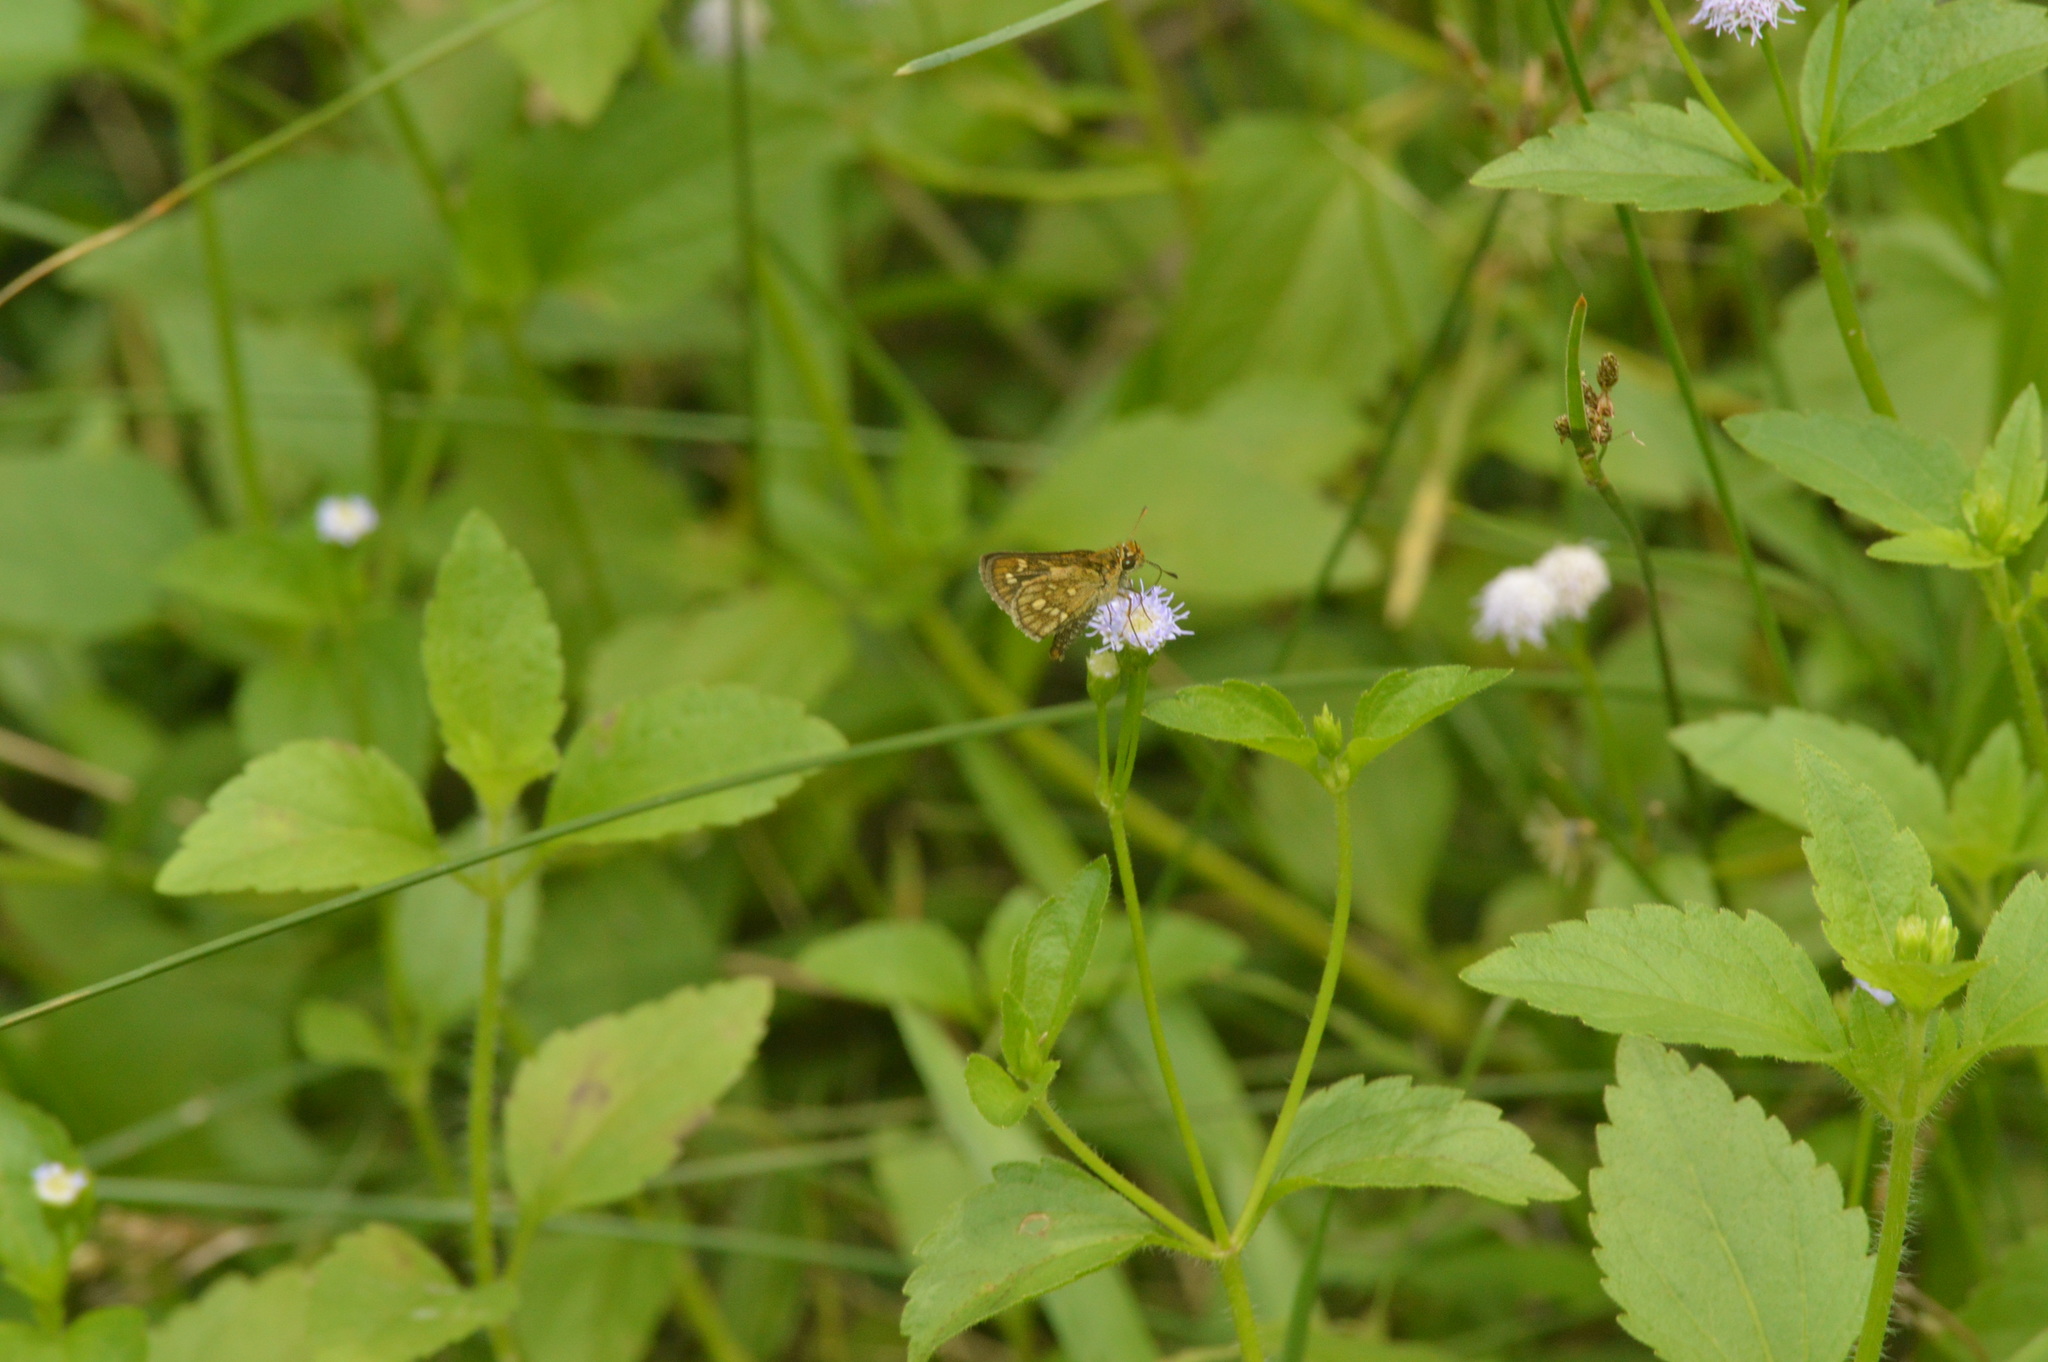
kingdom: Animalia
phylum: Arthropoda
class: Insecta
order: Lepidoptera
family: Hesperiidae
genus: Taractrocera
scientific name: Taractrocera ardonia
